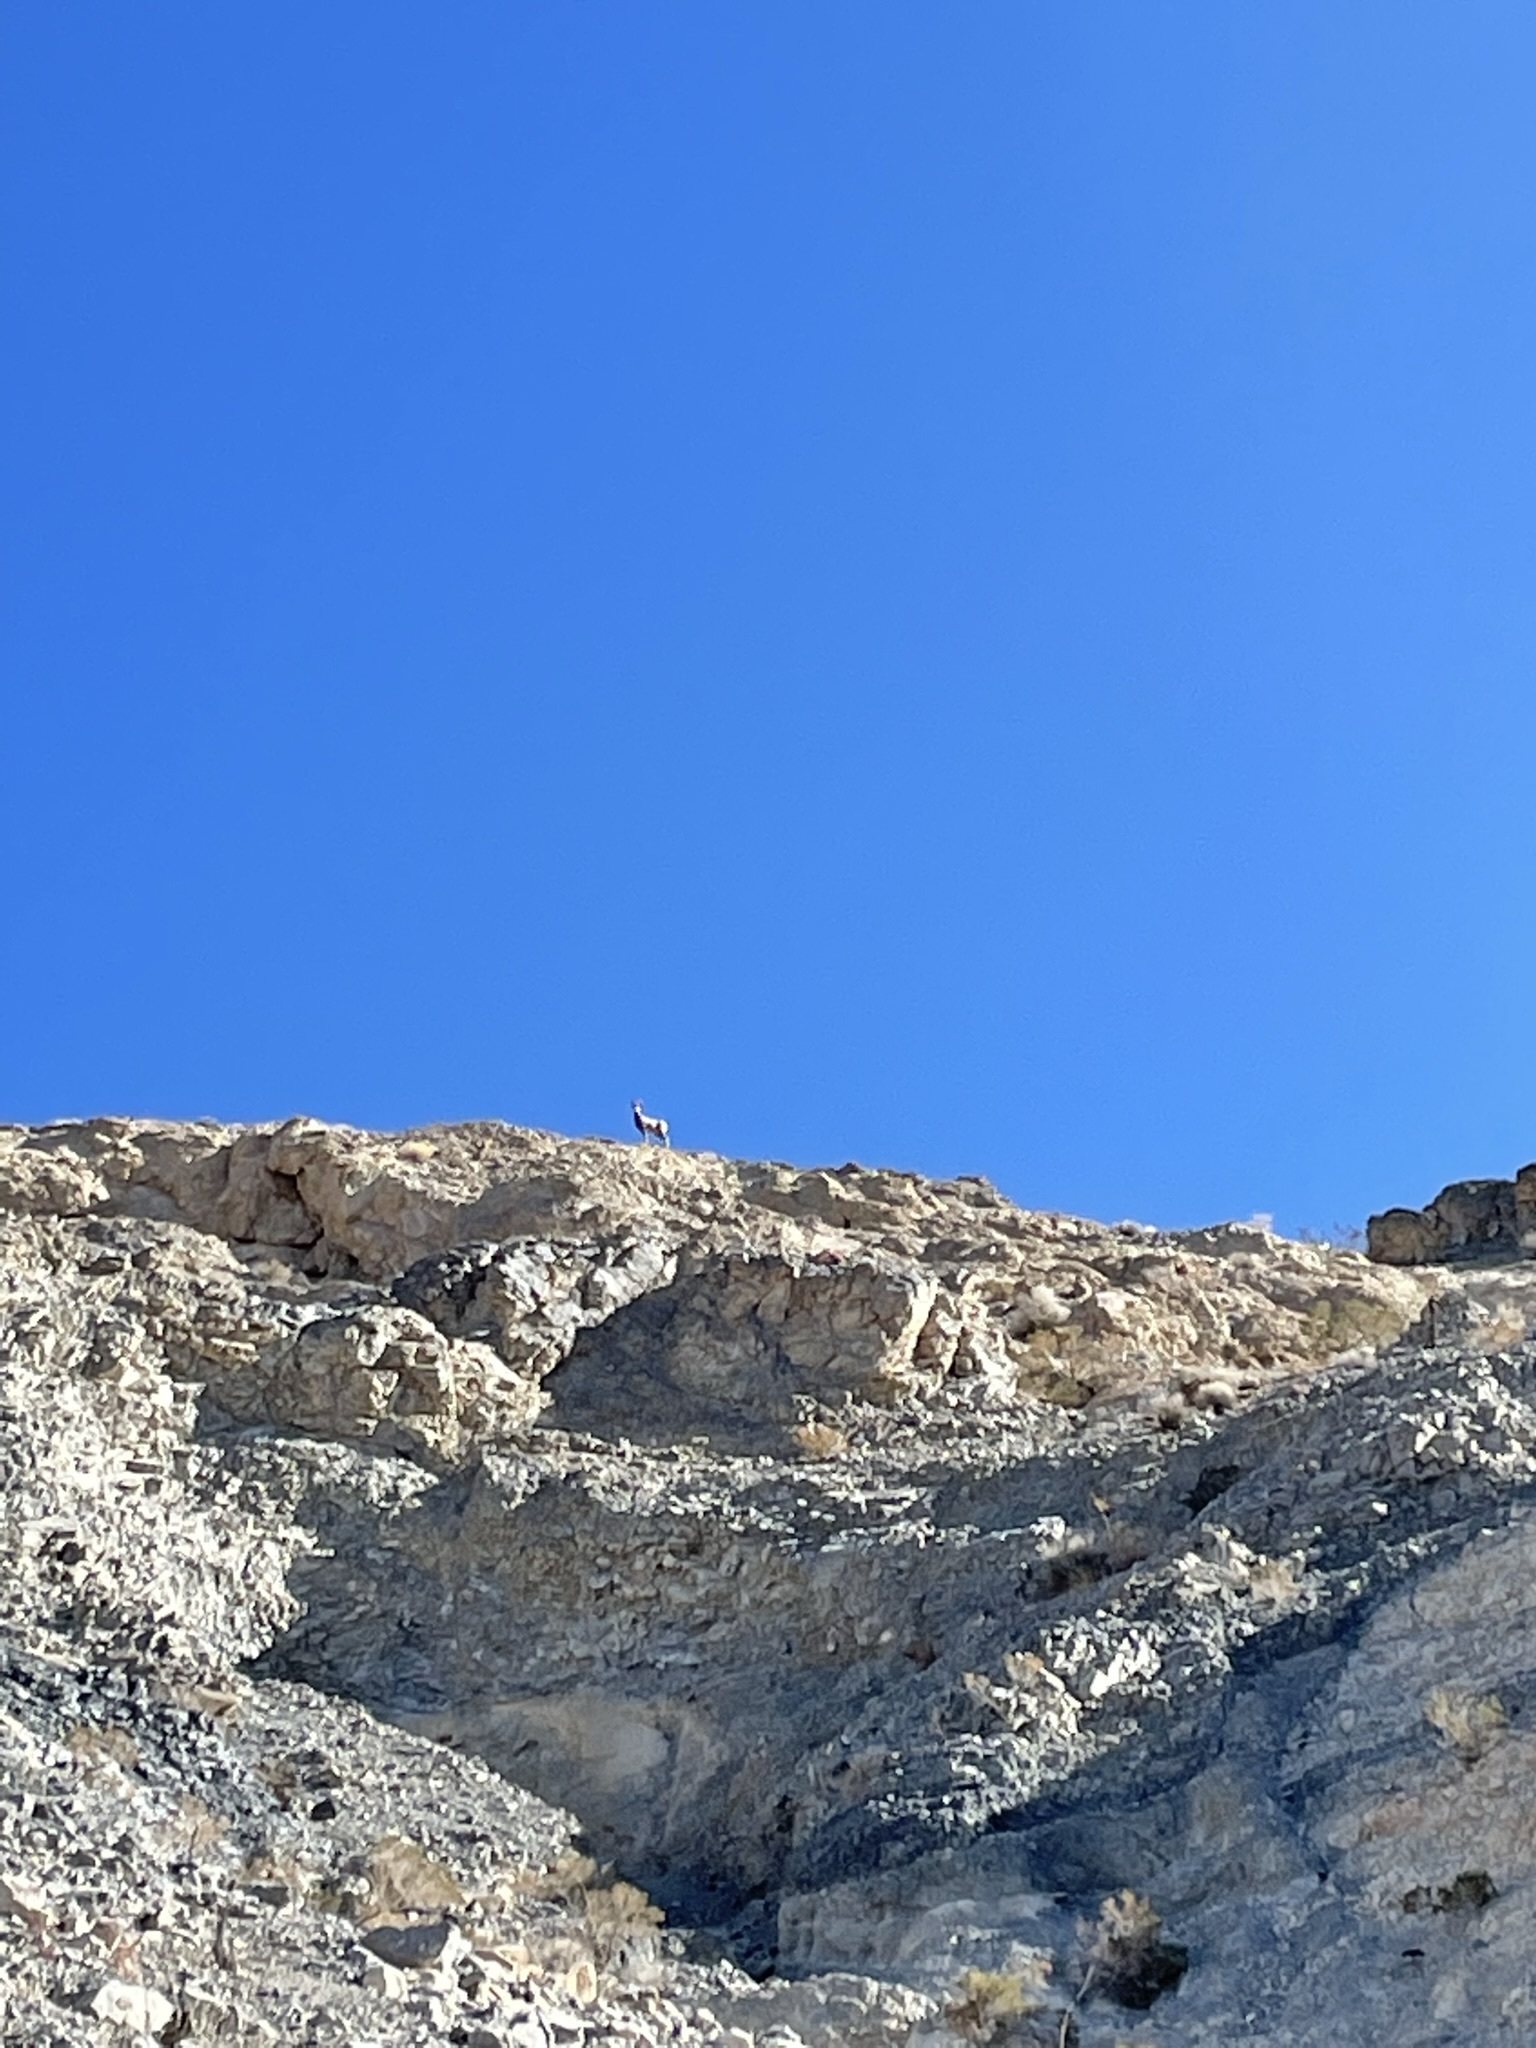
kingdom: Animalia
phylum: Chordata
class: Mammalia
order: Artiodactyla
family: Bovidae
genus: Ovis
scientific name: Ovis canadensis
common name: Bighorn sheep
